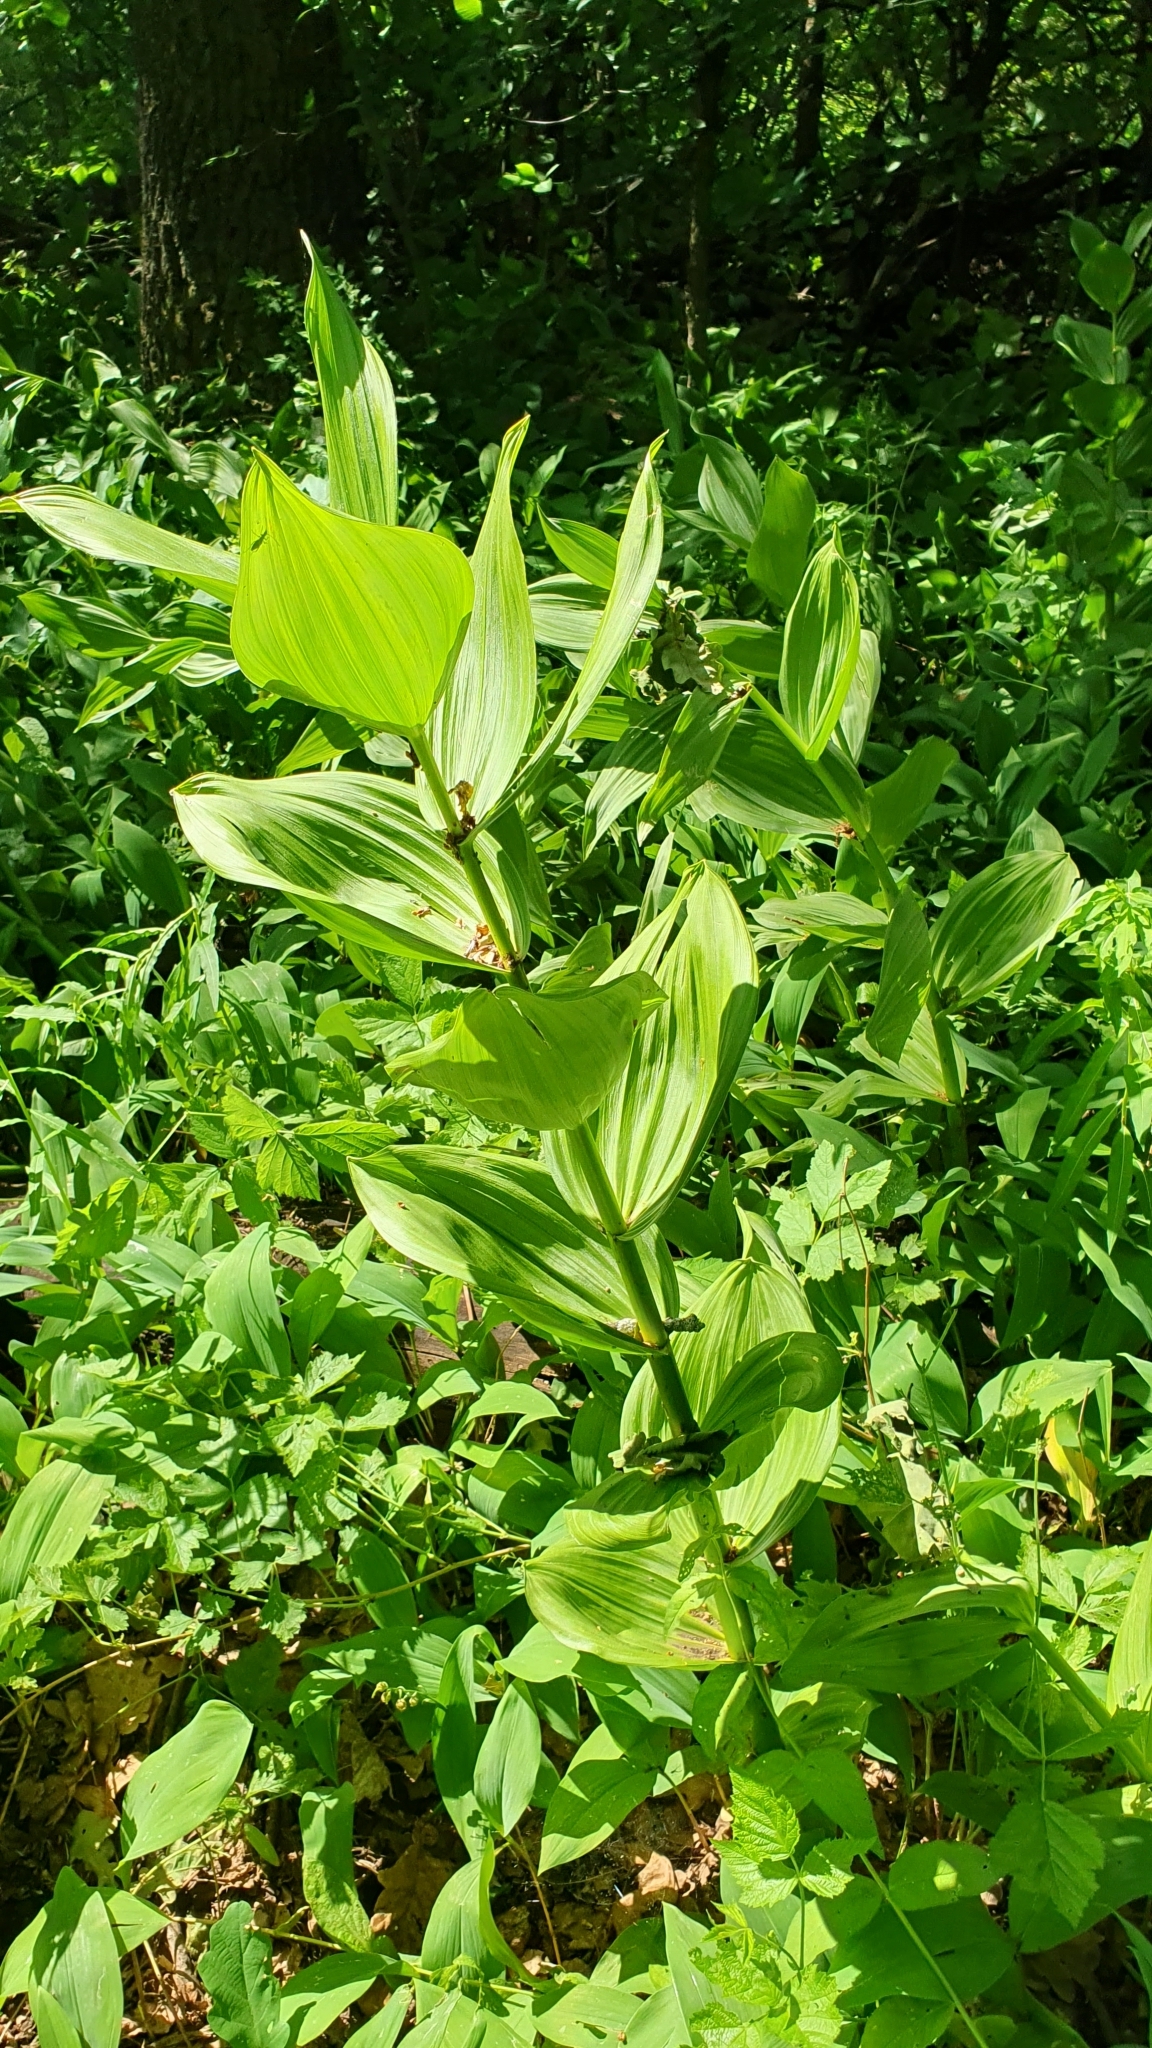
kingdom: Plantae
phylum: Tracheophyta
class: Liliopsida
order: Liliales
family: Melanthiaceae
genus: Veratrum
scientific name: Veratrum lobelianum
